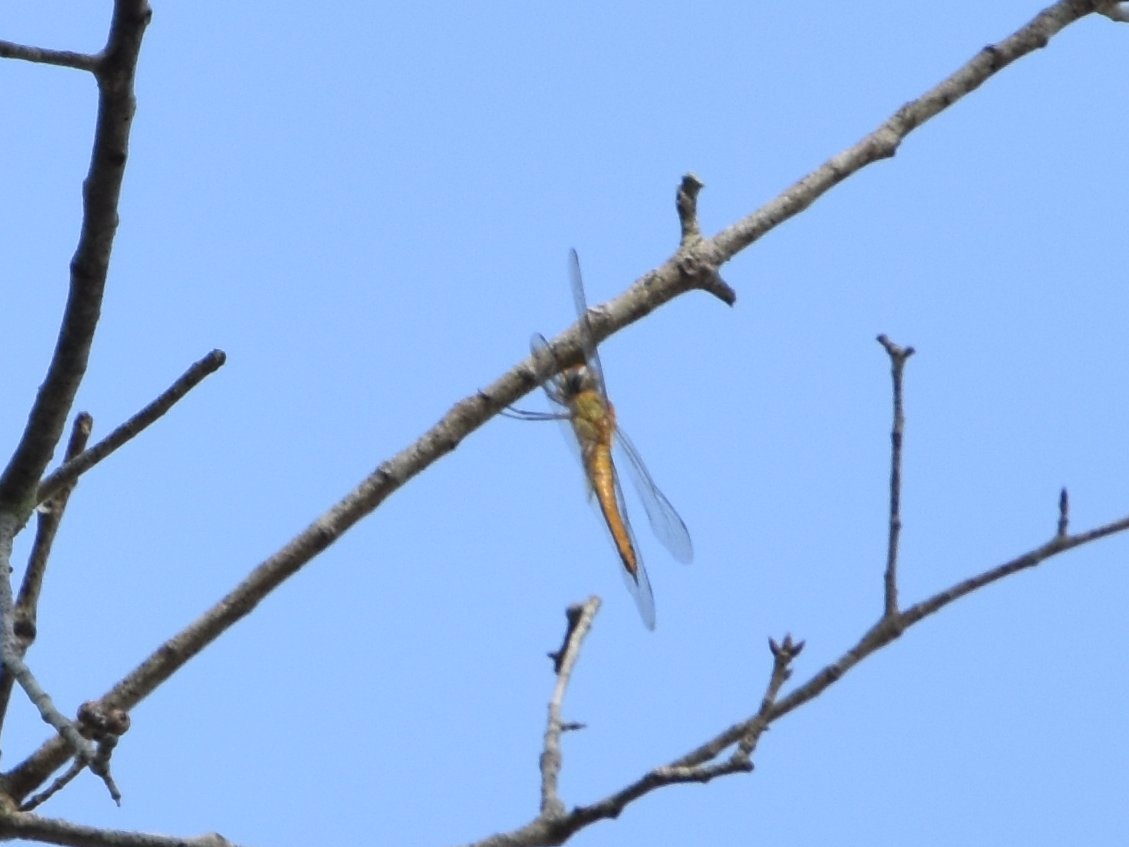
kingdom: Animalia
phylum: Arthropoda
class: Insecta
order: Odonata
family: Libellulidae
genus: Pantala
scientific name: Pantala flavescens
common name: Wandering glider
